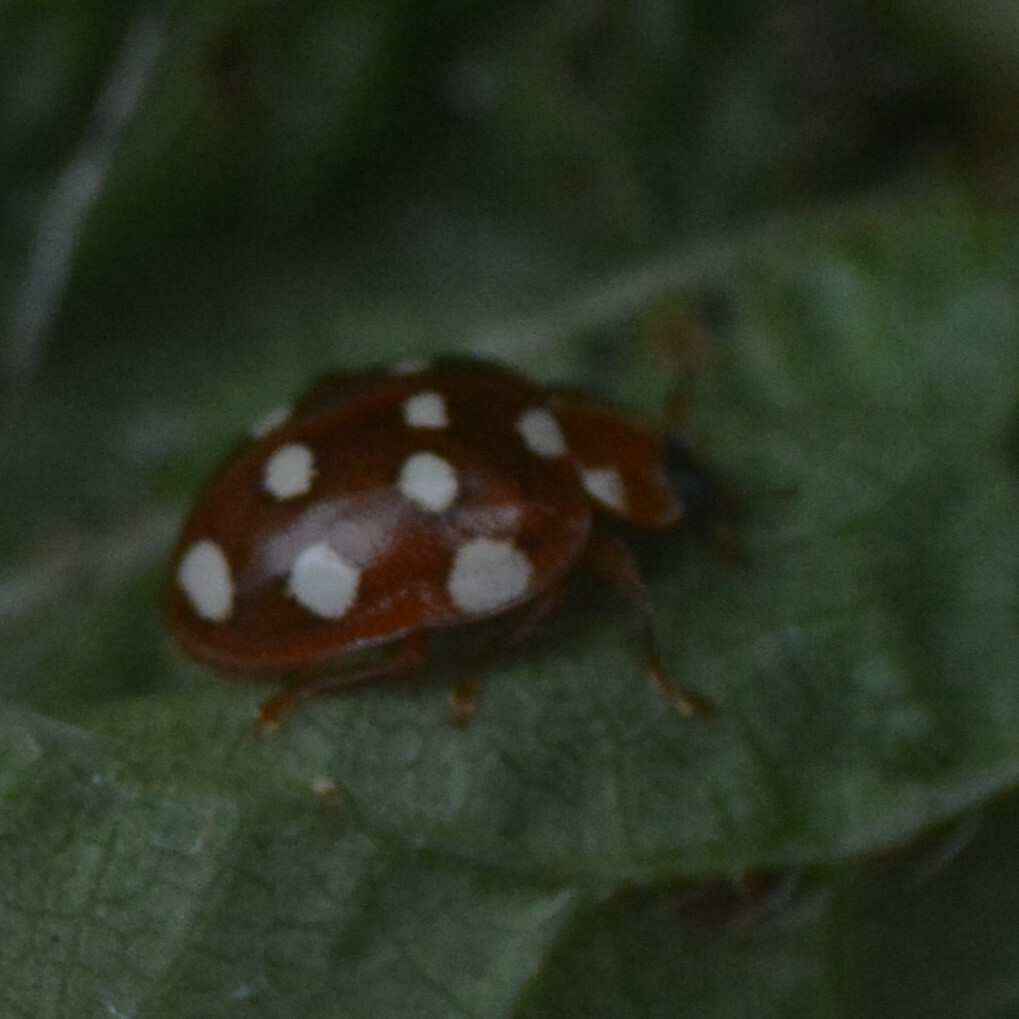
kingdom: Animalia
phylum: Arthropoda
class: Insecta
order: Coleoptera
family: Coccinellidae
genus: Calvia
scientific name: Calvia quatuordecimguttata
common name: Cream-spot ladybird
